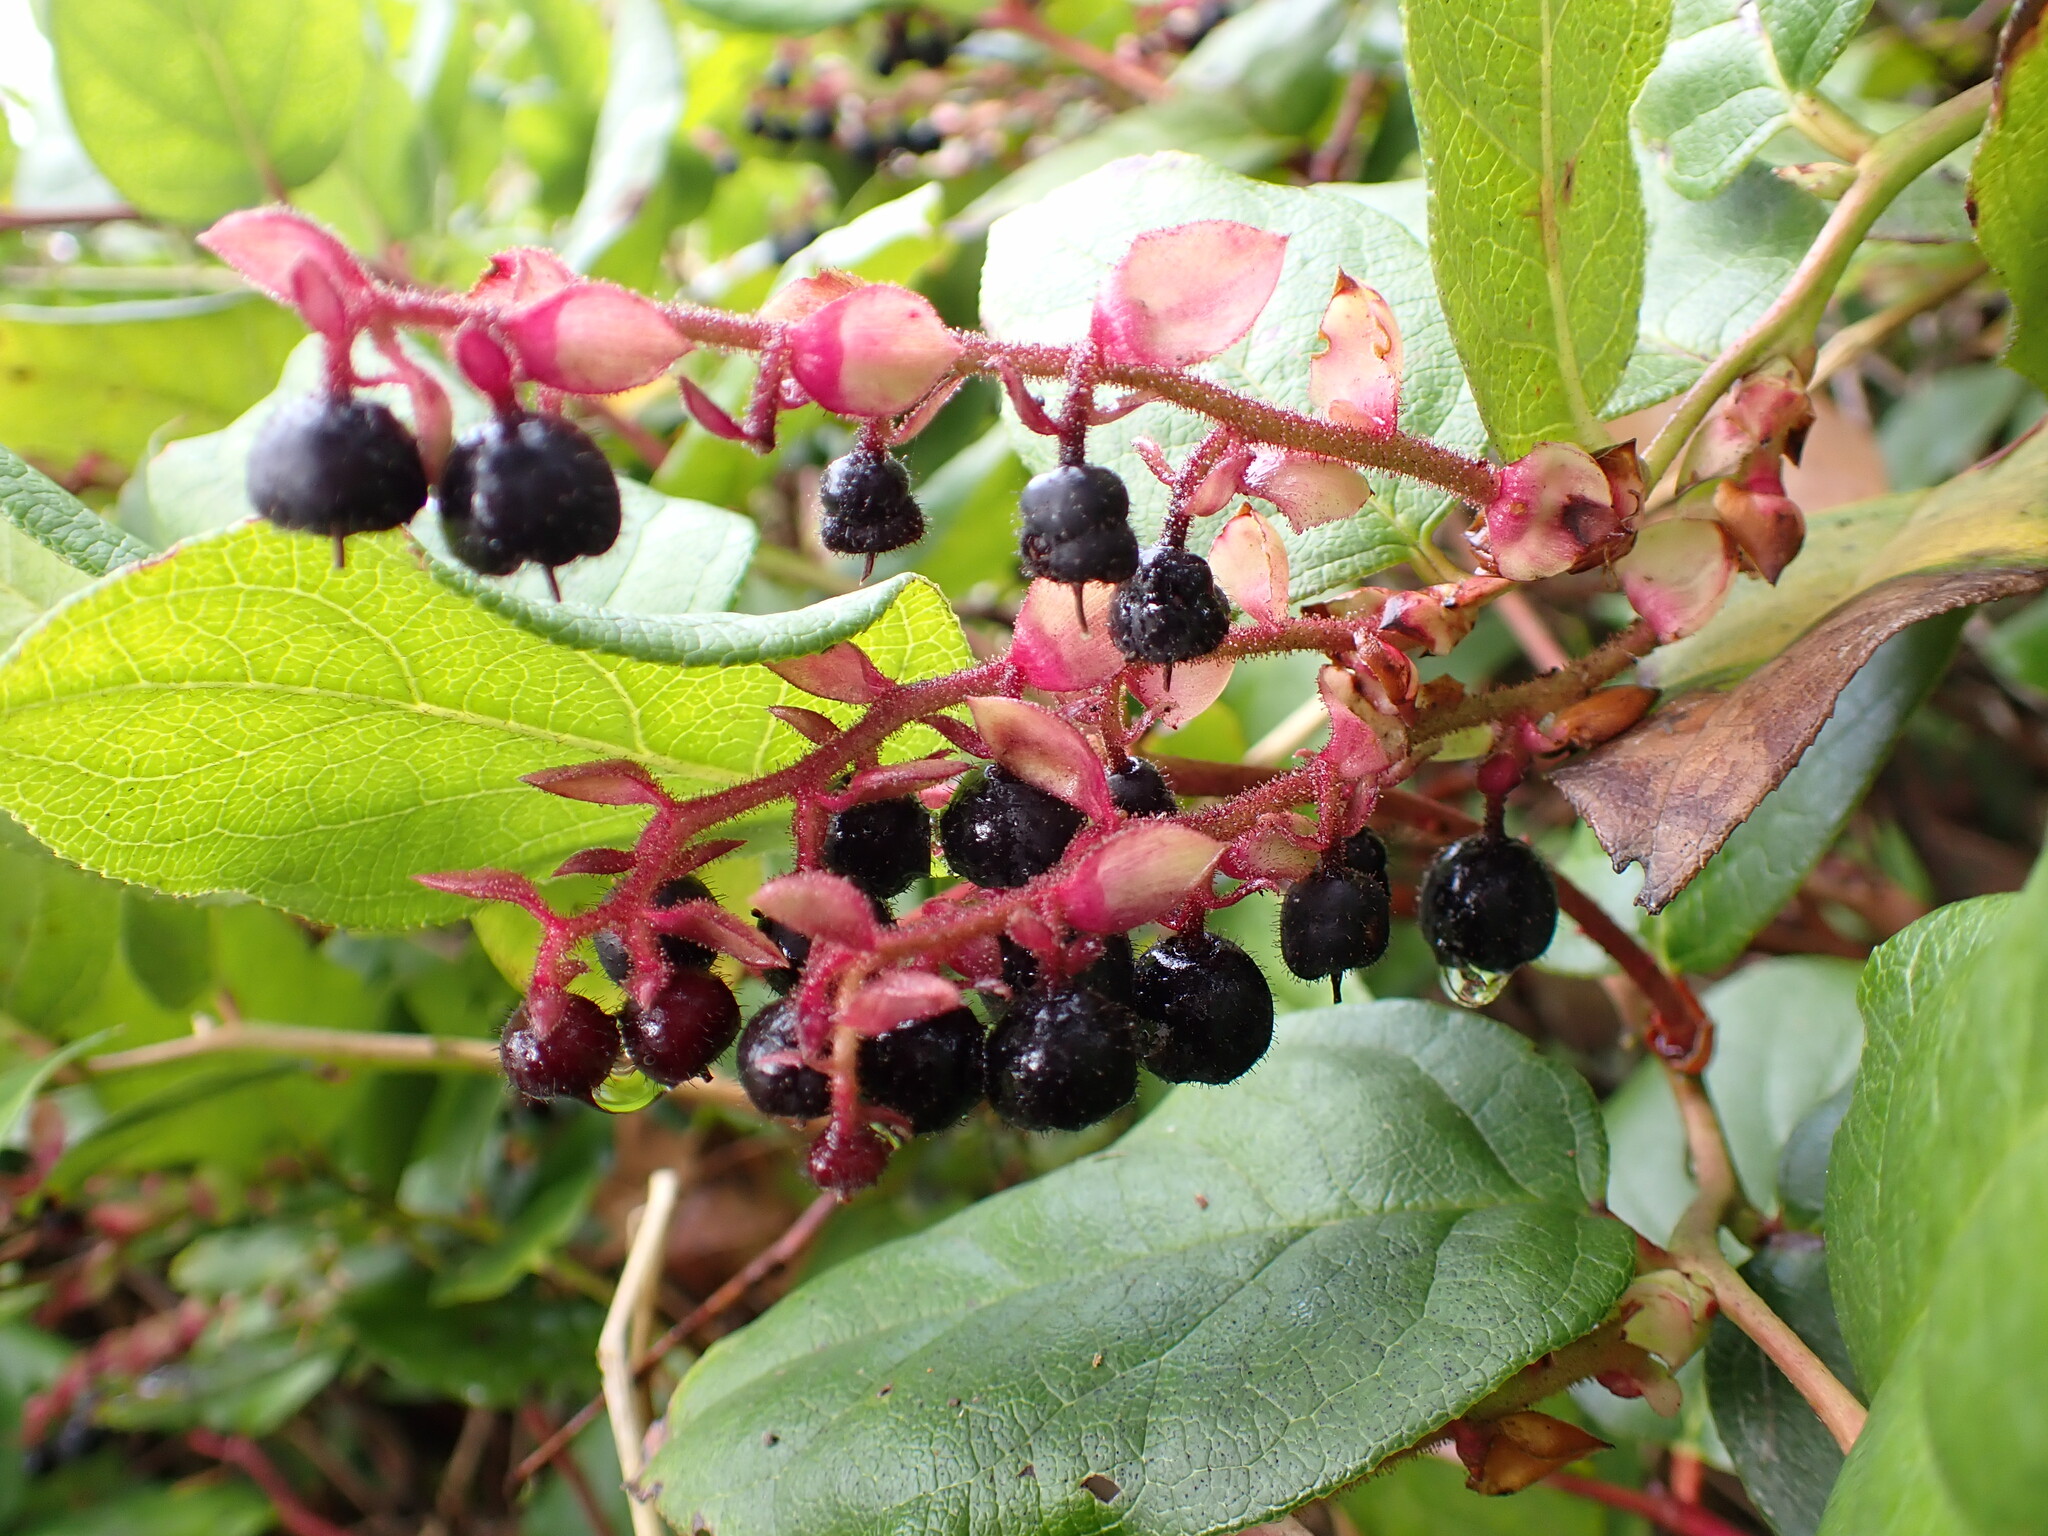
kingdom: Plantae
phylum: Tracheophyta
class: Magnoliopsida
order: Ericales
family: Ericaceae
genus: Gaultheria
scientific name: Gaultheria shallon
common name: Shallon
